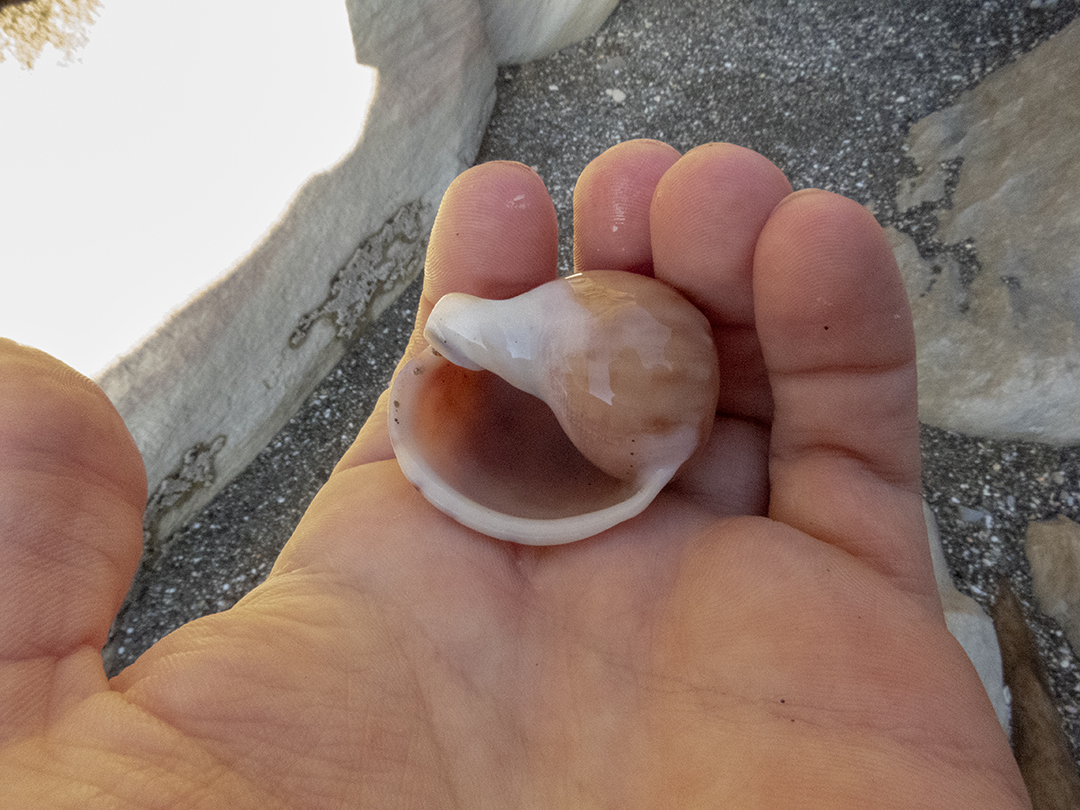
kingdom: Animalia
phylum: Mollusca
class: Gastropoda
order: Littorinimorpha
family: Cassidae
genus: Semicassis
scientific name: Semicassis pyrum
